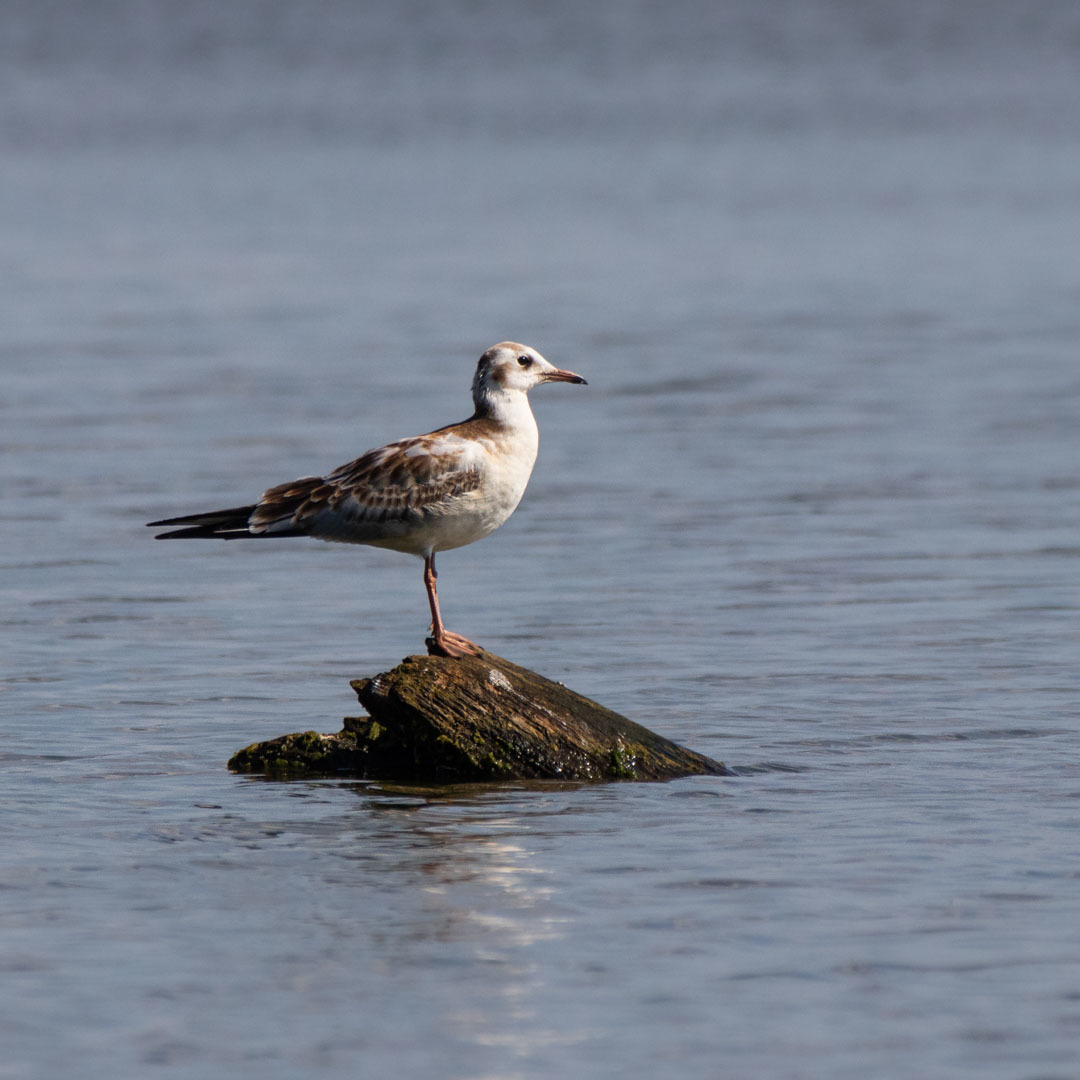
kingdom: Animalia
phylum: Chordata
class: Aves
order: Charadriiformes
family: Laridae
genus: Chroicocephalus
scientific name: Chroicocephalus ridibundus
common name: Black-headed gull
